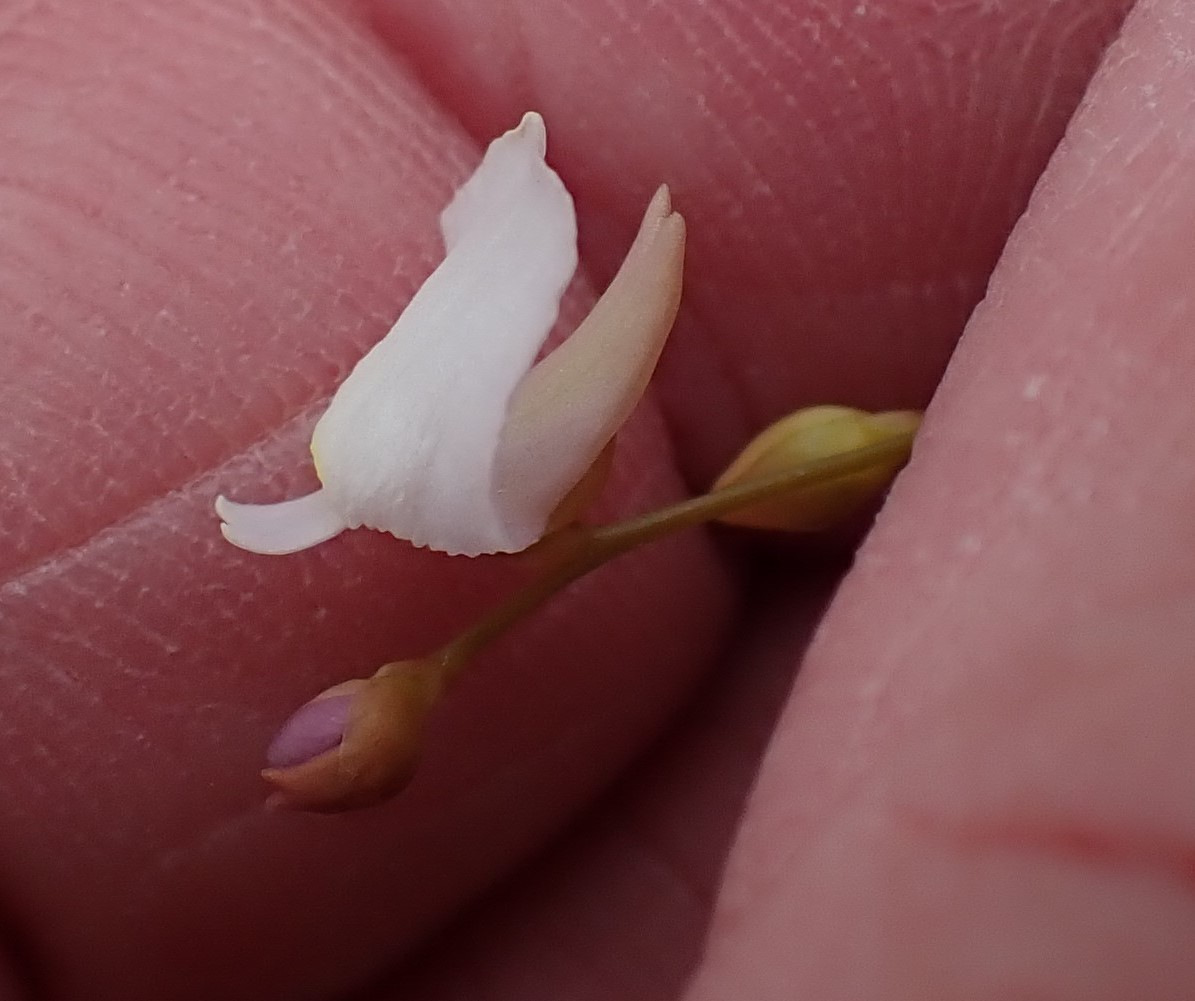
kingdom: Plantae
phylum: Tracheophyta
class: Magnoliopsida
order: Lamiales
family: Lentibulariaceae
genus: Utricularia
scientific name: Utricularia lateriflora
